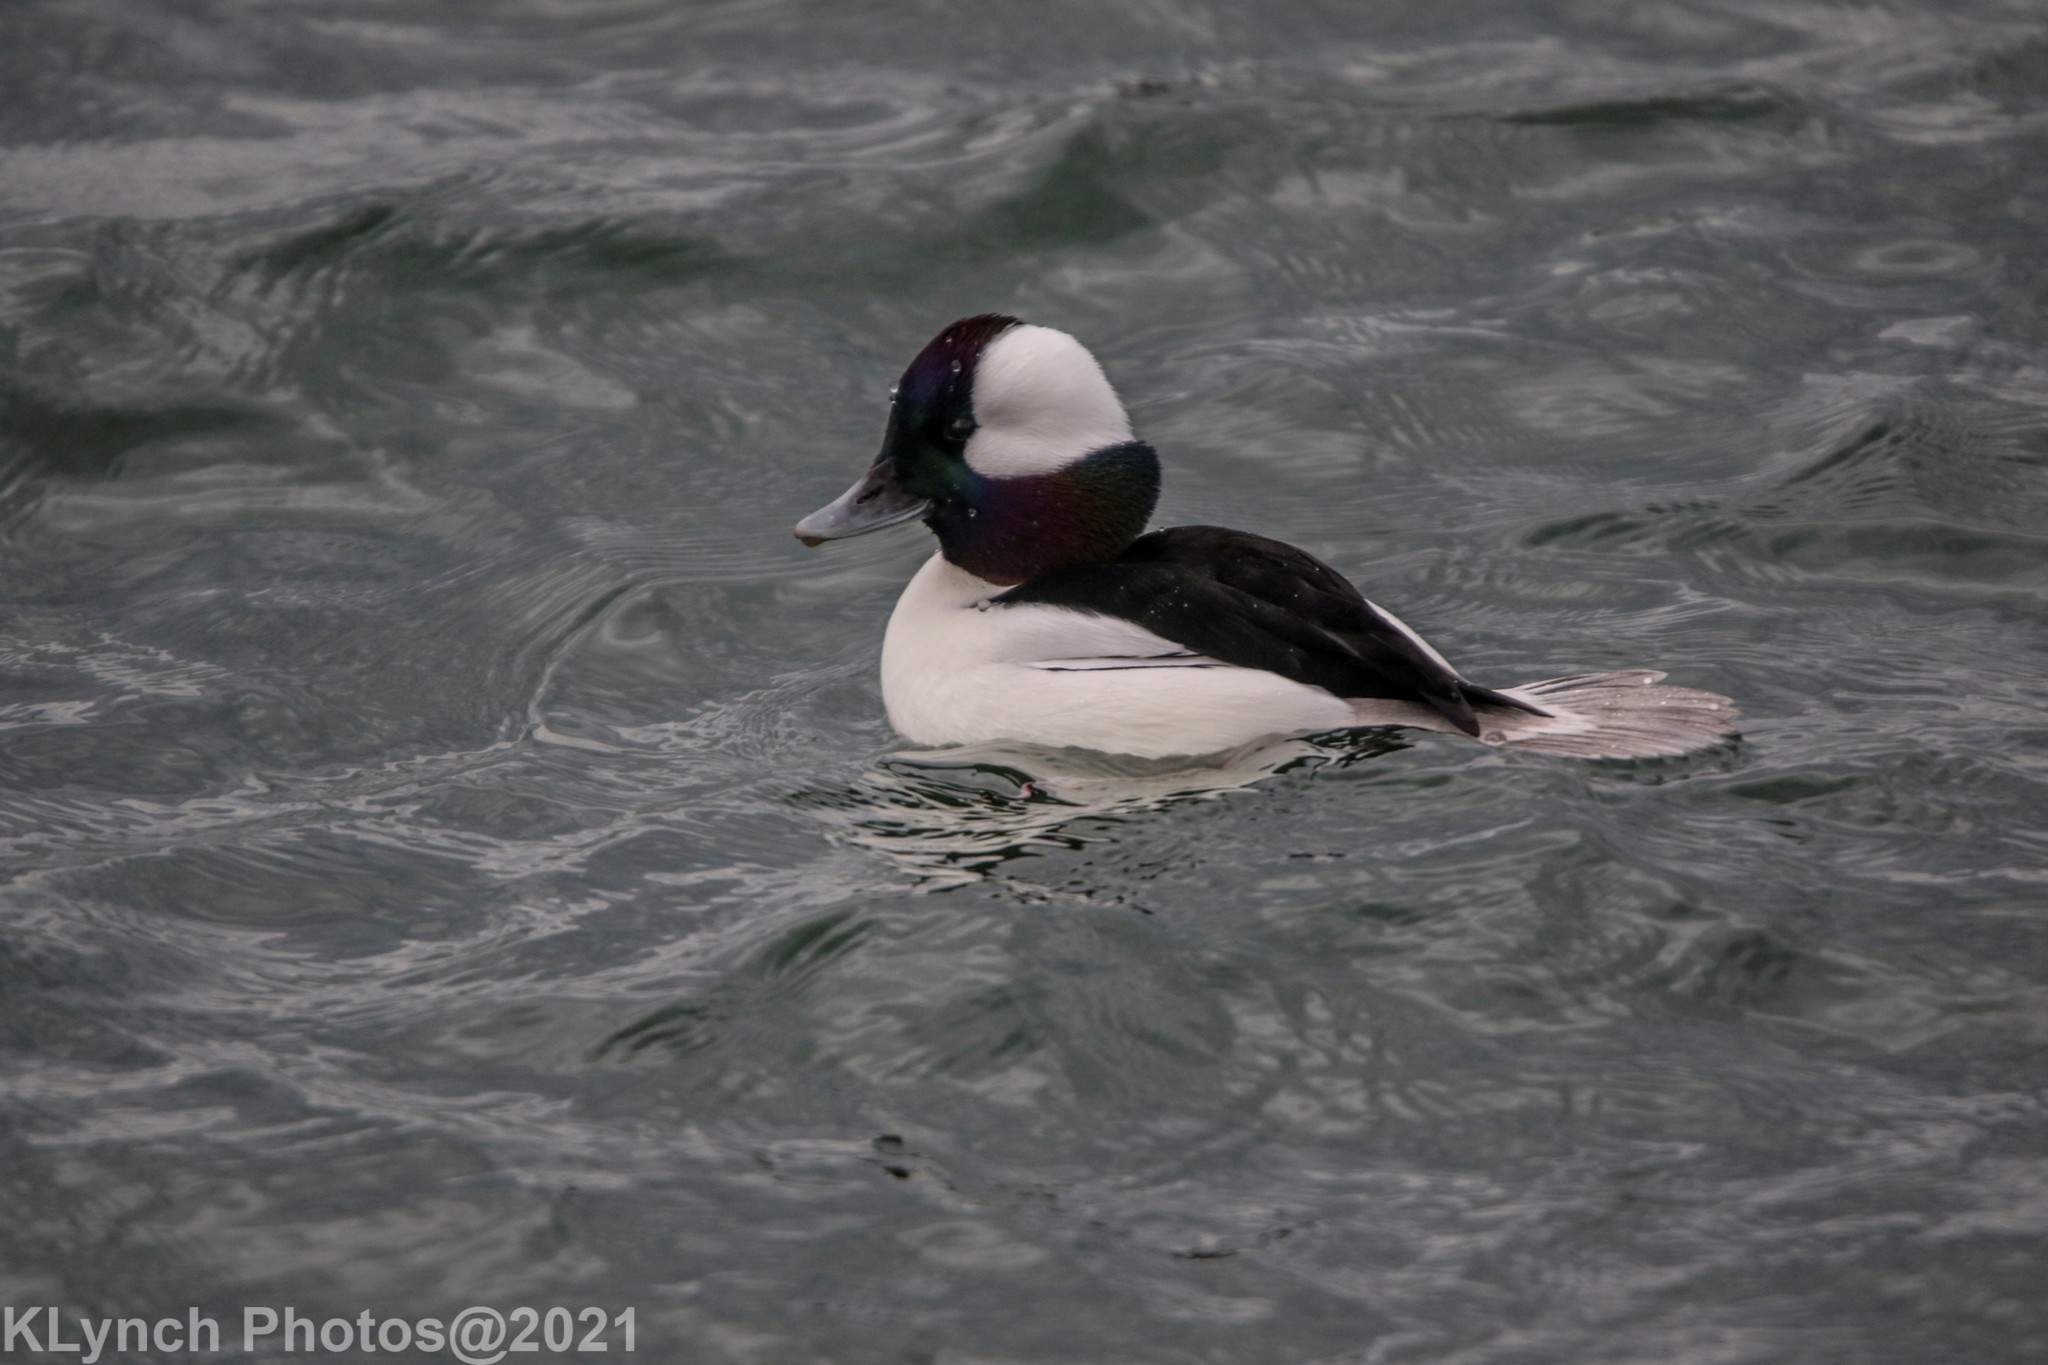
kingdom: Animalia
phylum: Chordata
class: Aves
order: Anseriformes
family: Anatidae
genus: Bucephala
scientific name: Bucephala albeola
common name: Bufflehead
